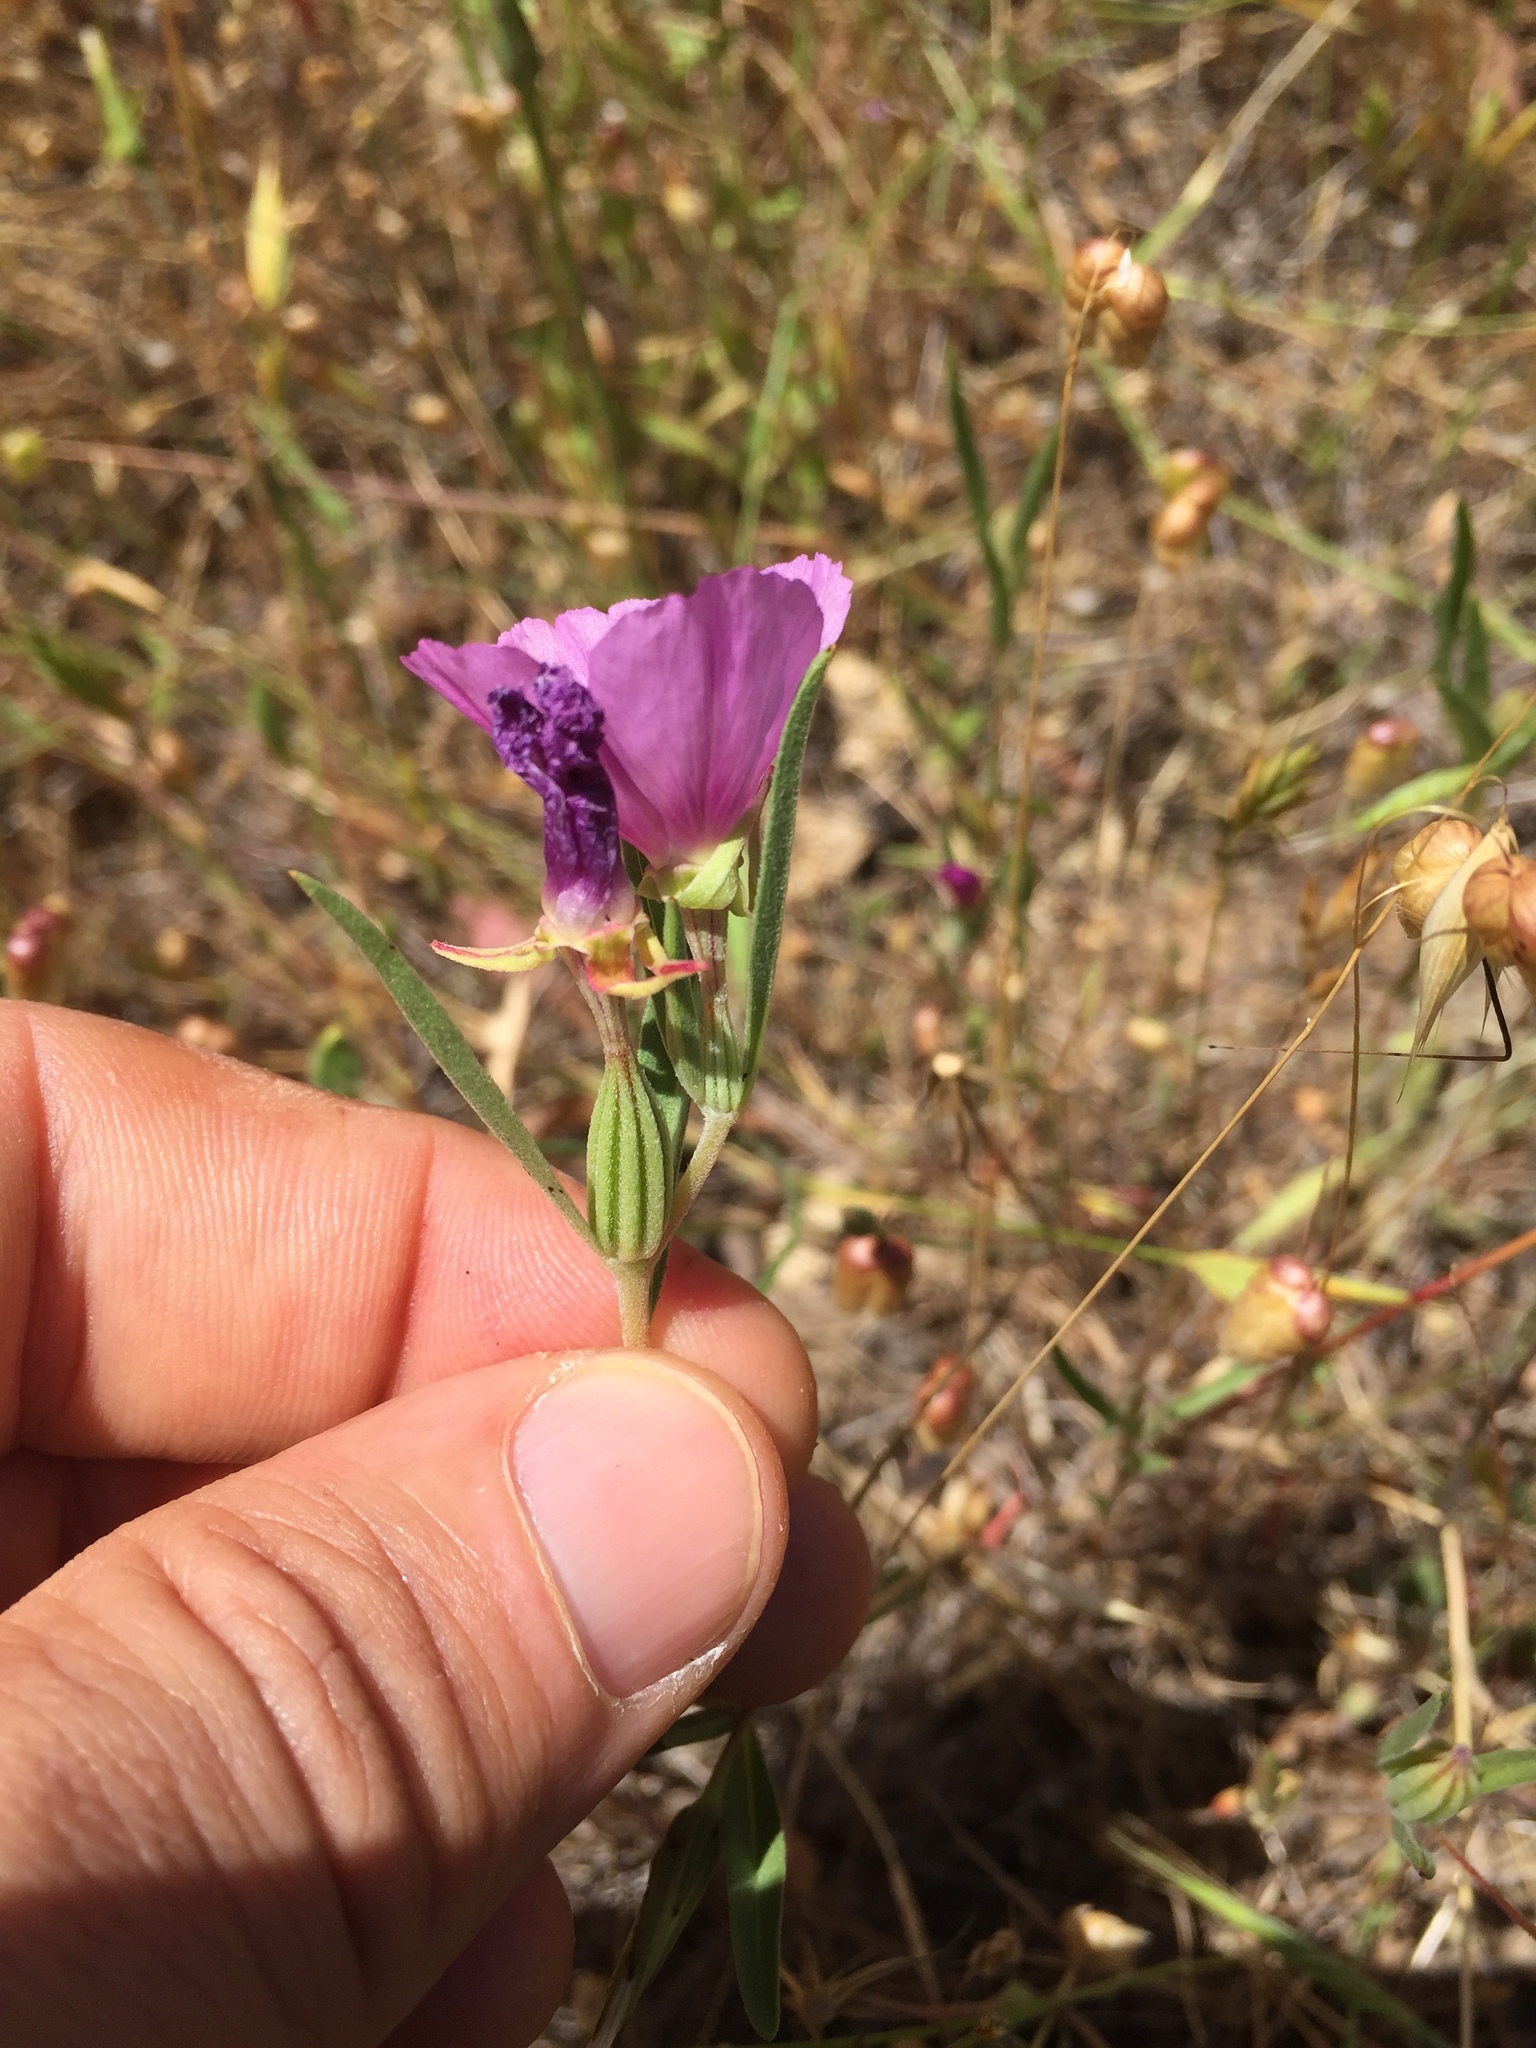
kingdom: Plantae
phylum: Tracheophyta
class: Magnoliopsida
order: Myrtales
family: Onagraceae
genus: Clarkia
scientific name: Clarkia purpurea
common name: Purple clarkia
